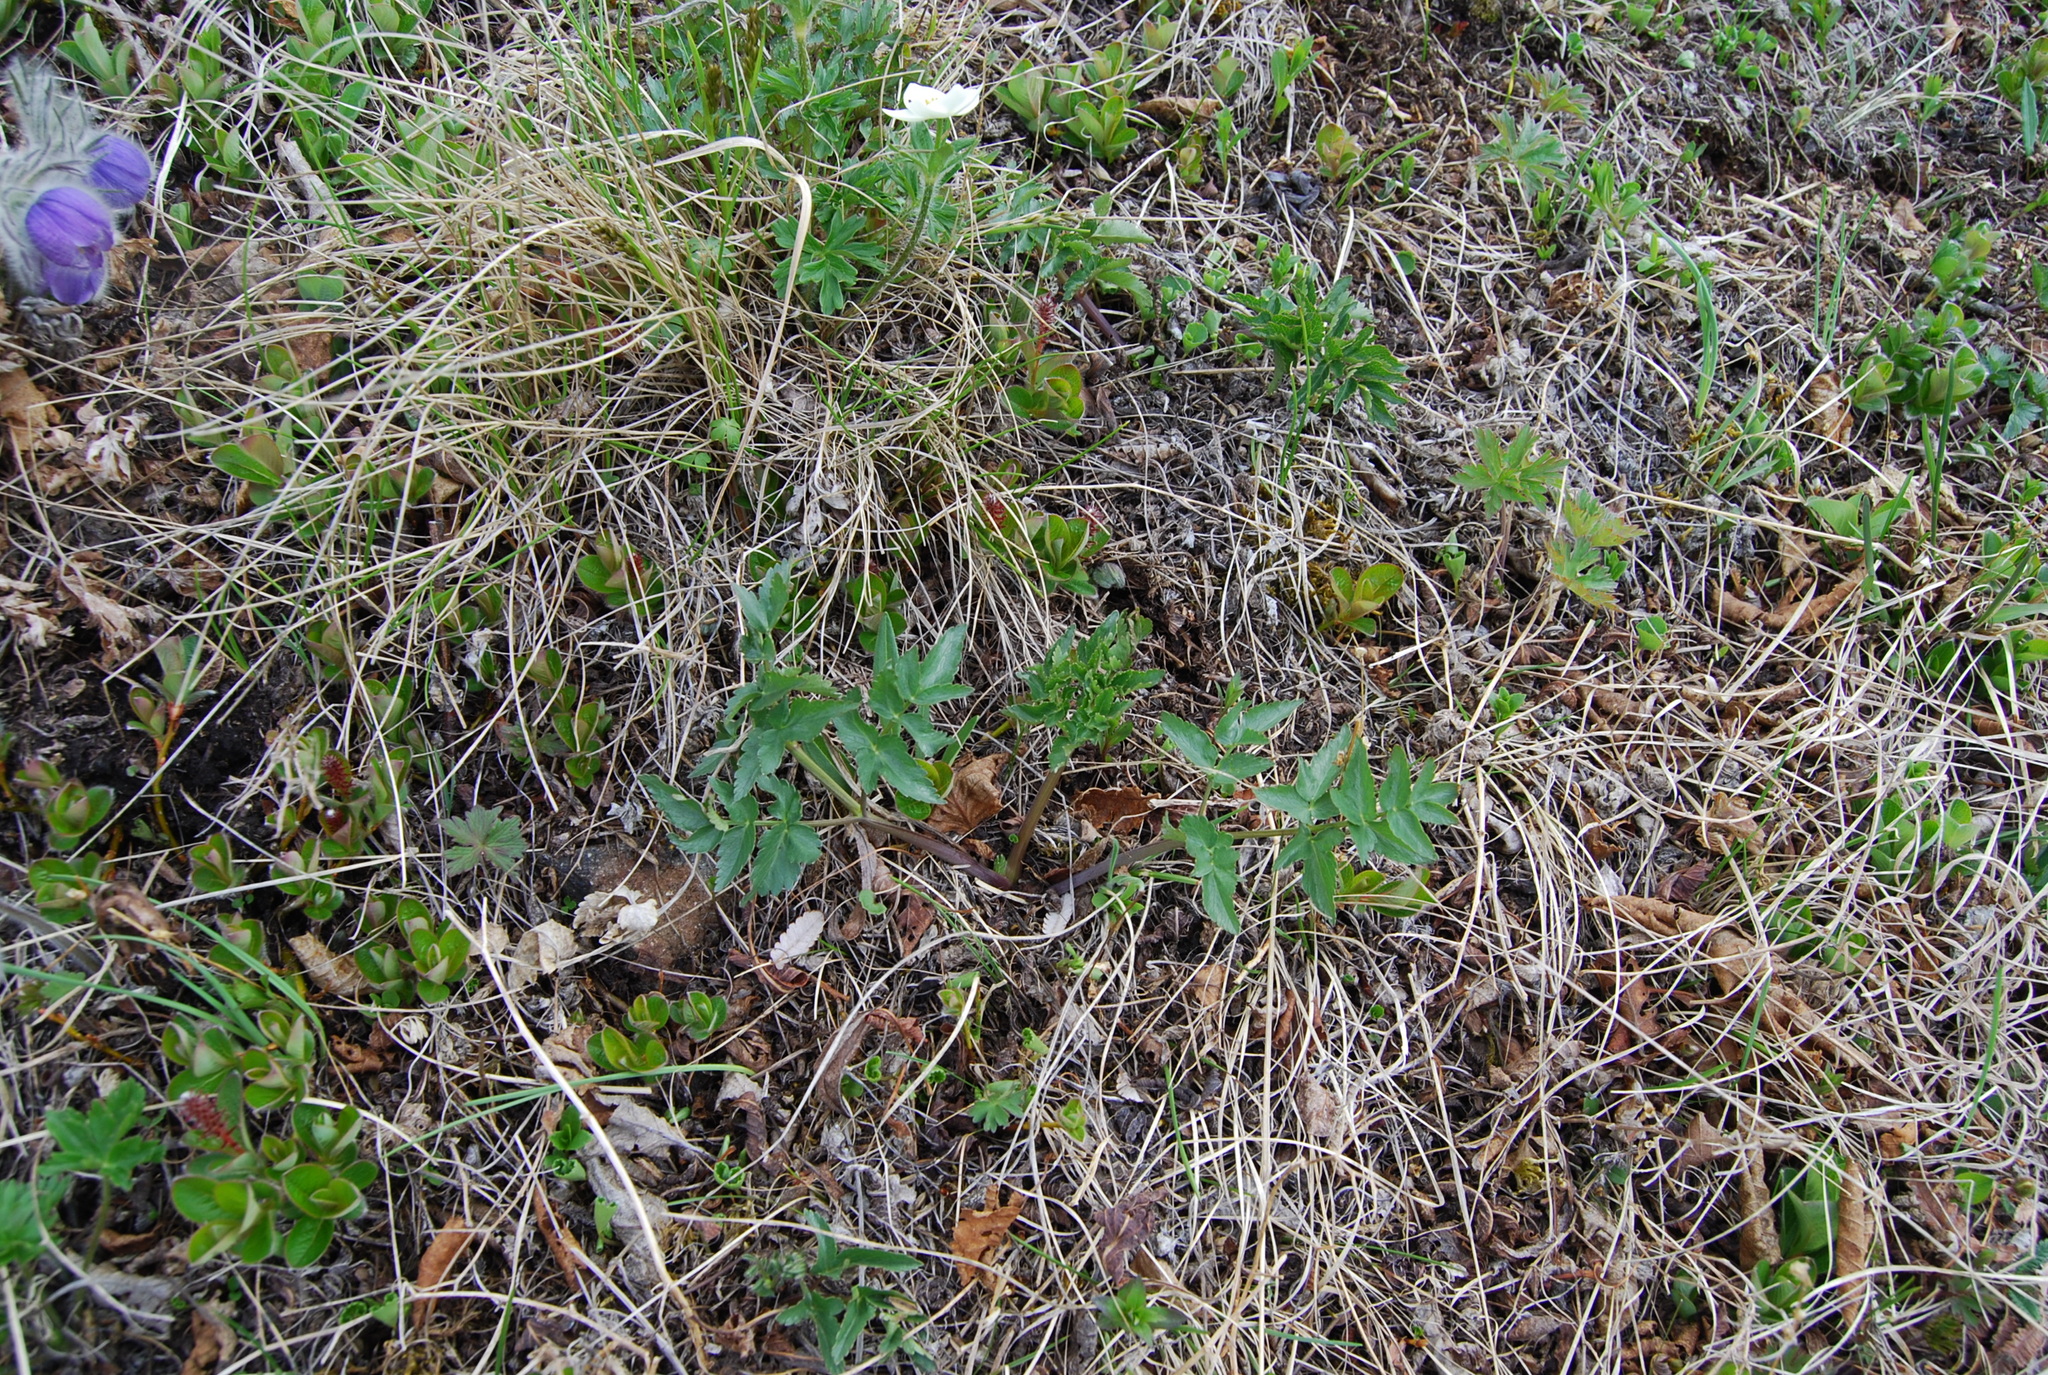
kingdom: Plantae
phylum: Tracheophyta
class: Magnoliopsida
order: Apiales
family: Apiaceae
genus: Magadania
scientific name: Magadania olaensis
